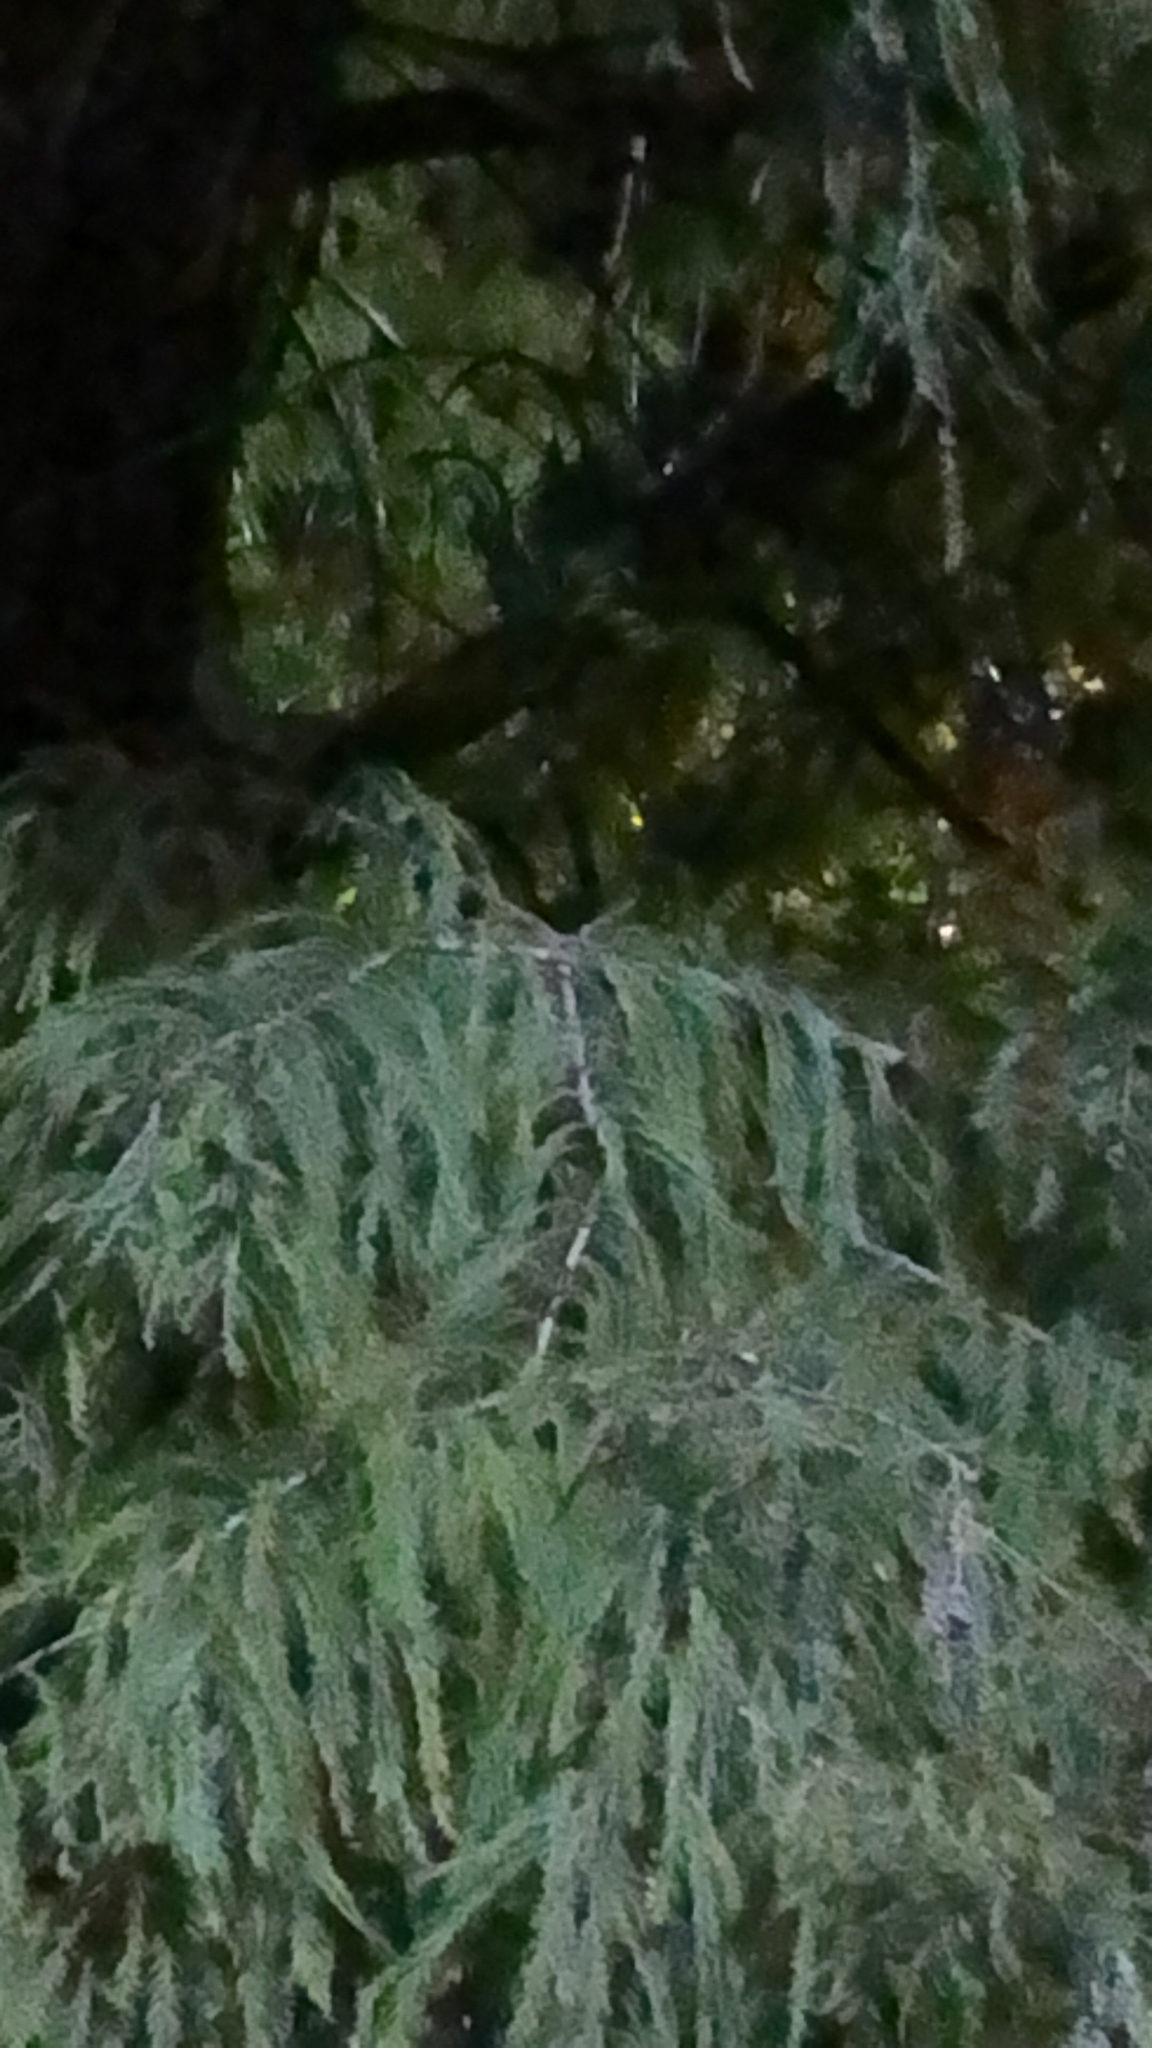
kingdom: Plantae
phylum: Tracheophyta
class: Pinopsida
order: Pinales
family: Cupressaceae
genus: Taxodium
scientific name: Taxodium distichum
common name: Bald cypress
